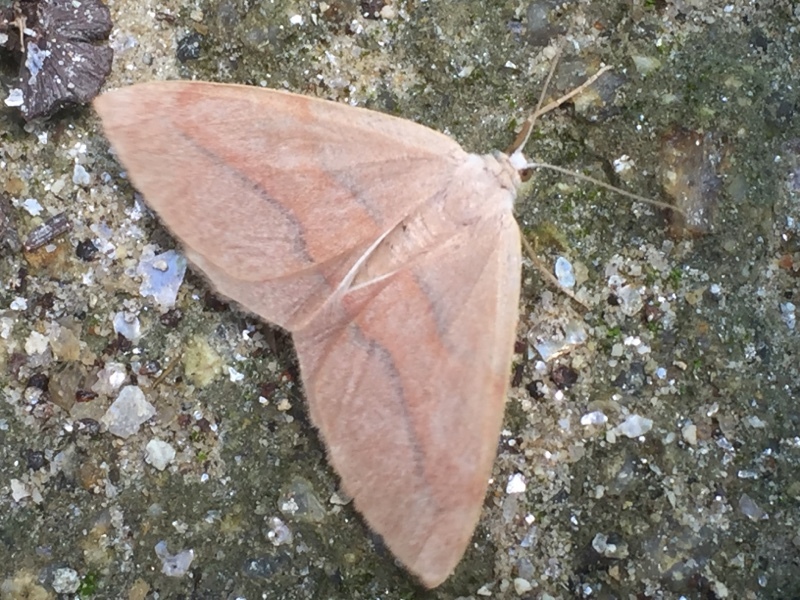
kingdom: Animalia
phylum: Arthropoda
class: Insecta
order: Lepidoptera
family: Geometridae
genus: Hylaea
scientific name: Hylaea fasciaria
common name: Barred red
